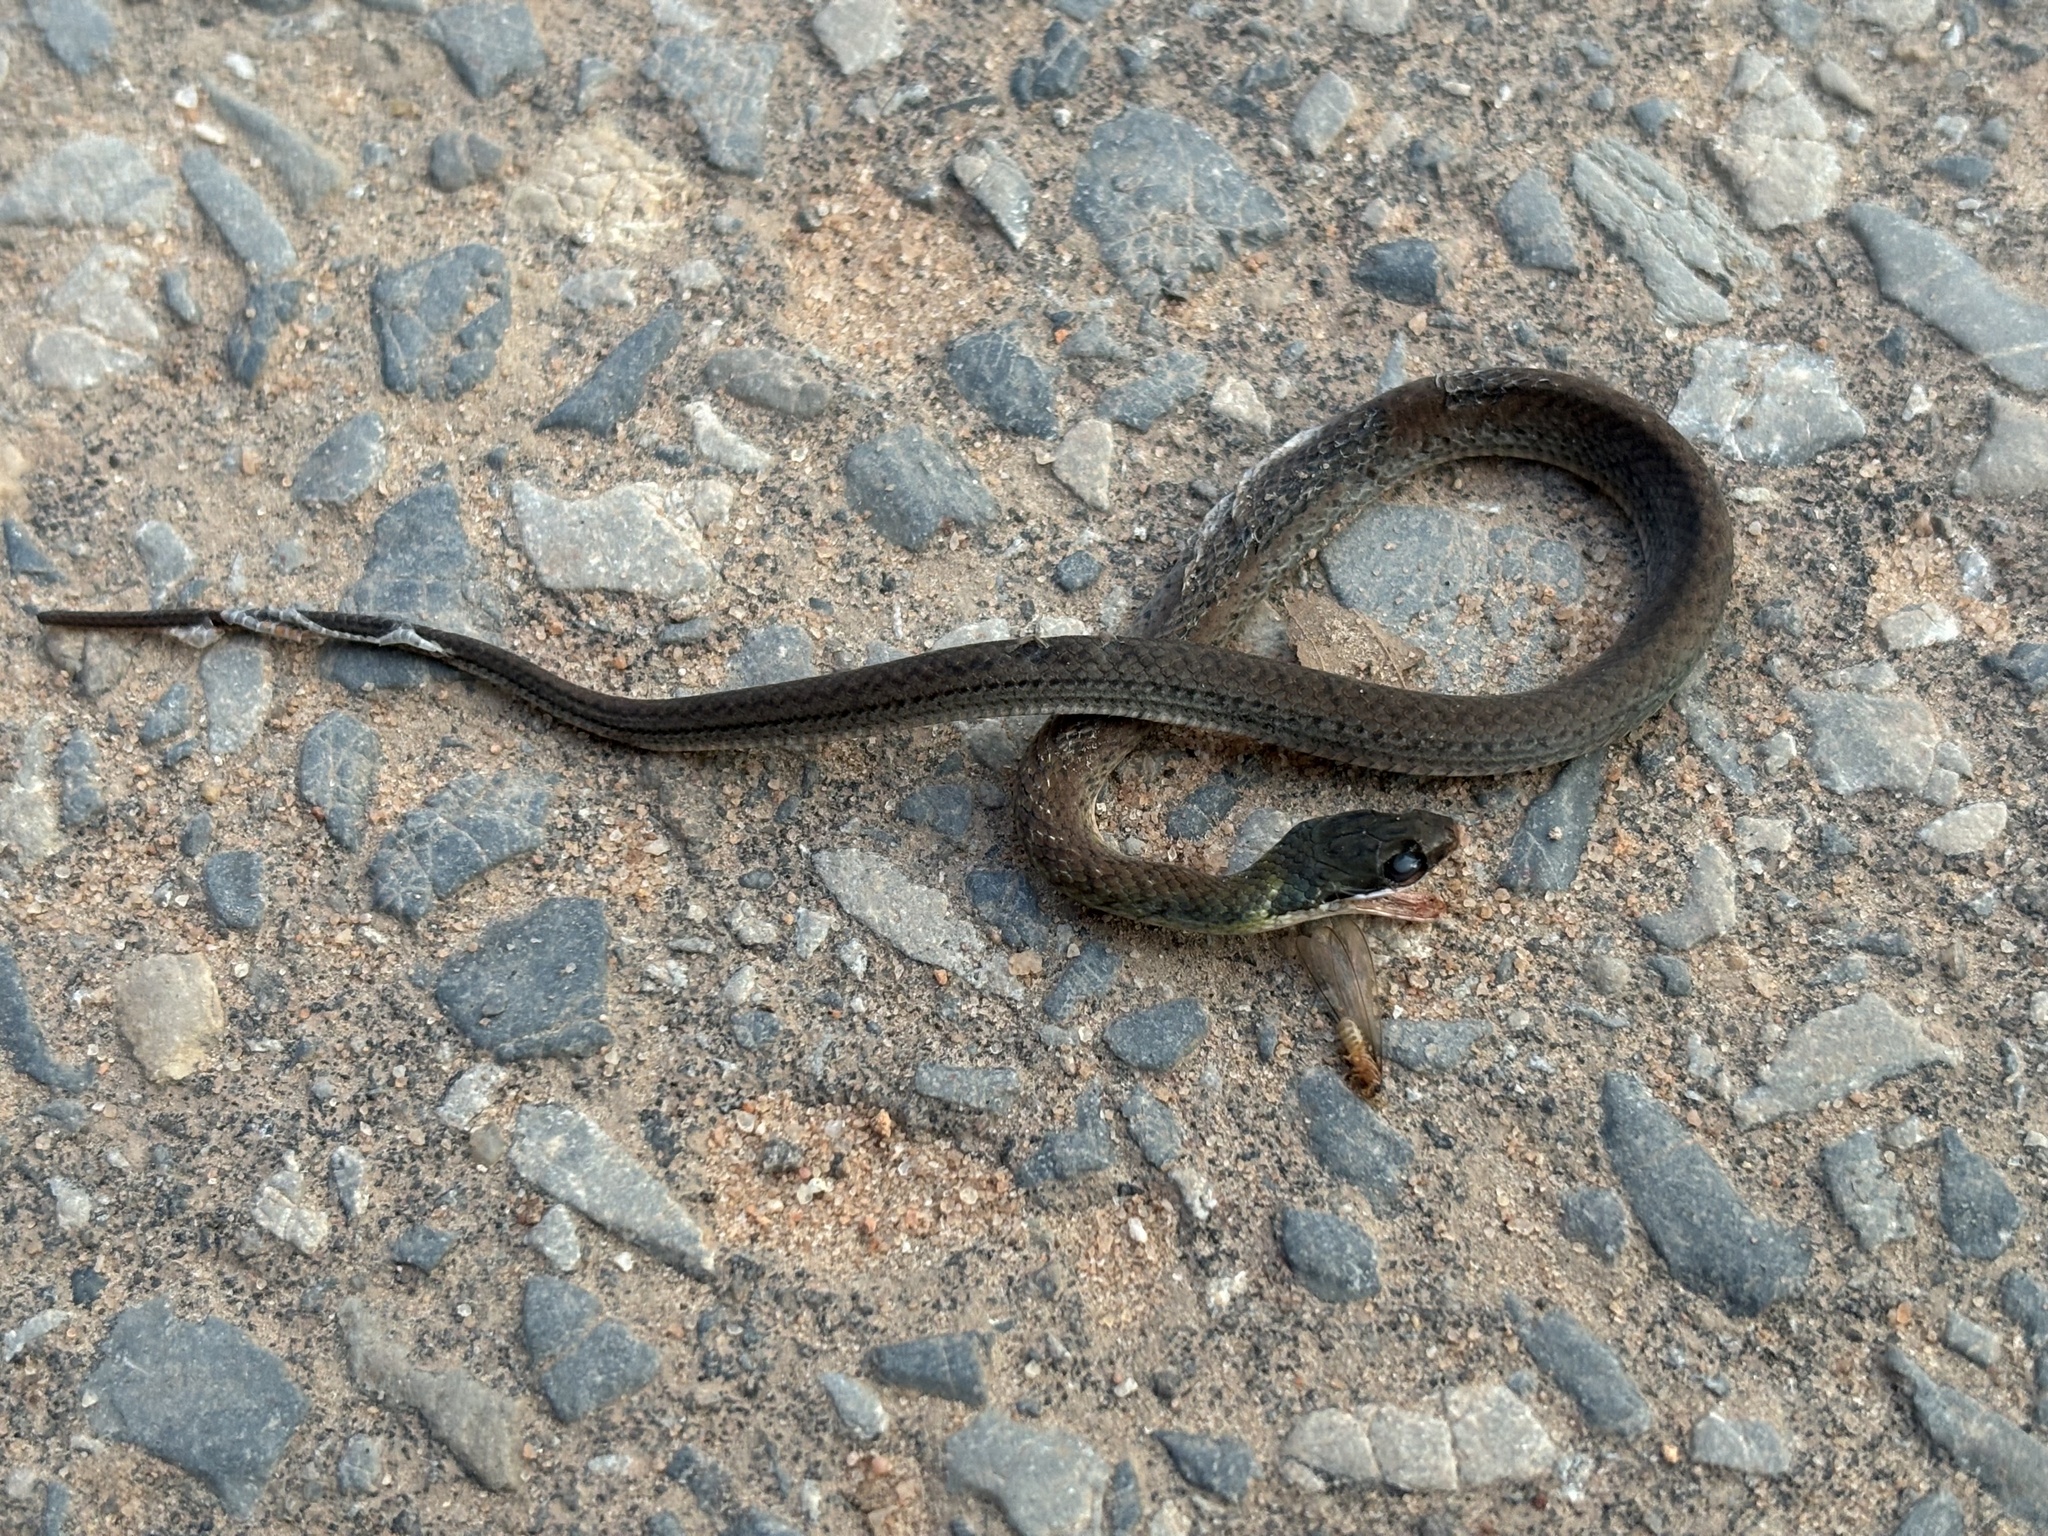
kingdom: Animalia
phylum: Chordata
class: Squamata
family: Colubridae
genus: Erythrolamprus
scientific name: Erythrolamprus reginae
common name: Royal ground snake
